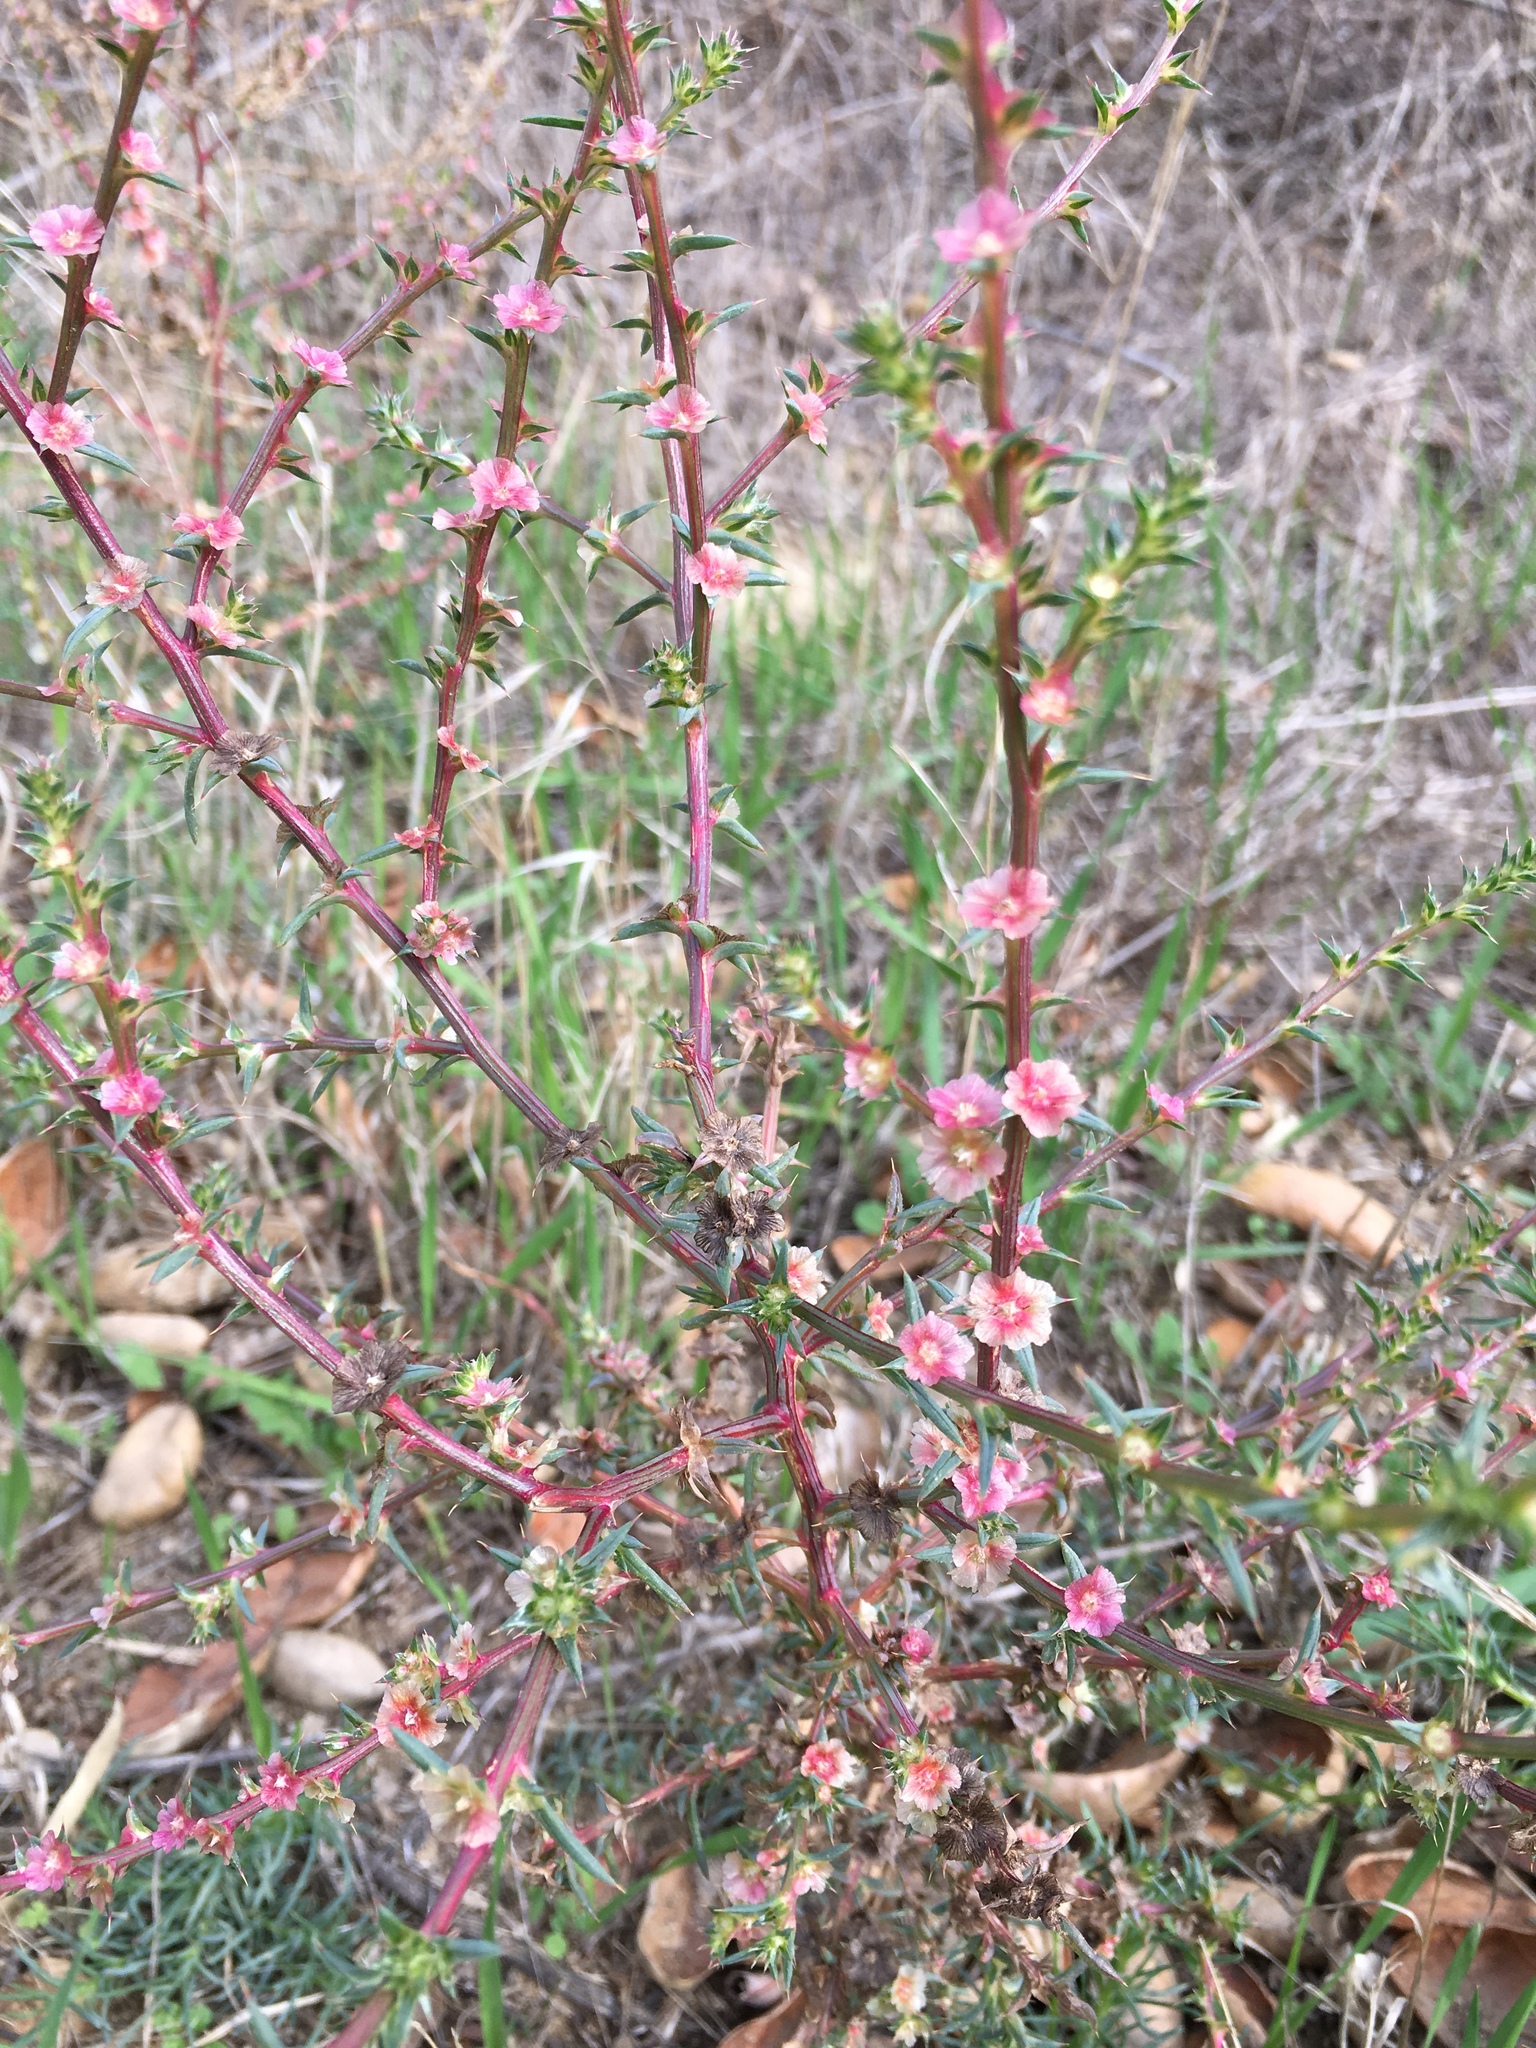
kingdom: Plantae
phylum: Tracheophyta
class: Magnoliopsida
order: Caryophyllales
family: Amaranthaceae
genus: Salsola
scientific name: Salsola australis
